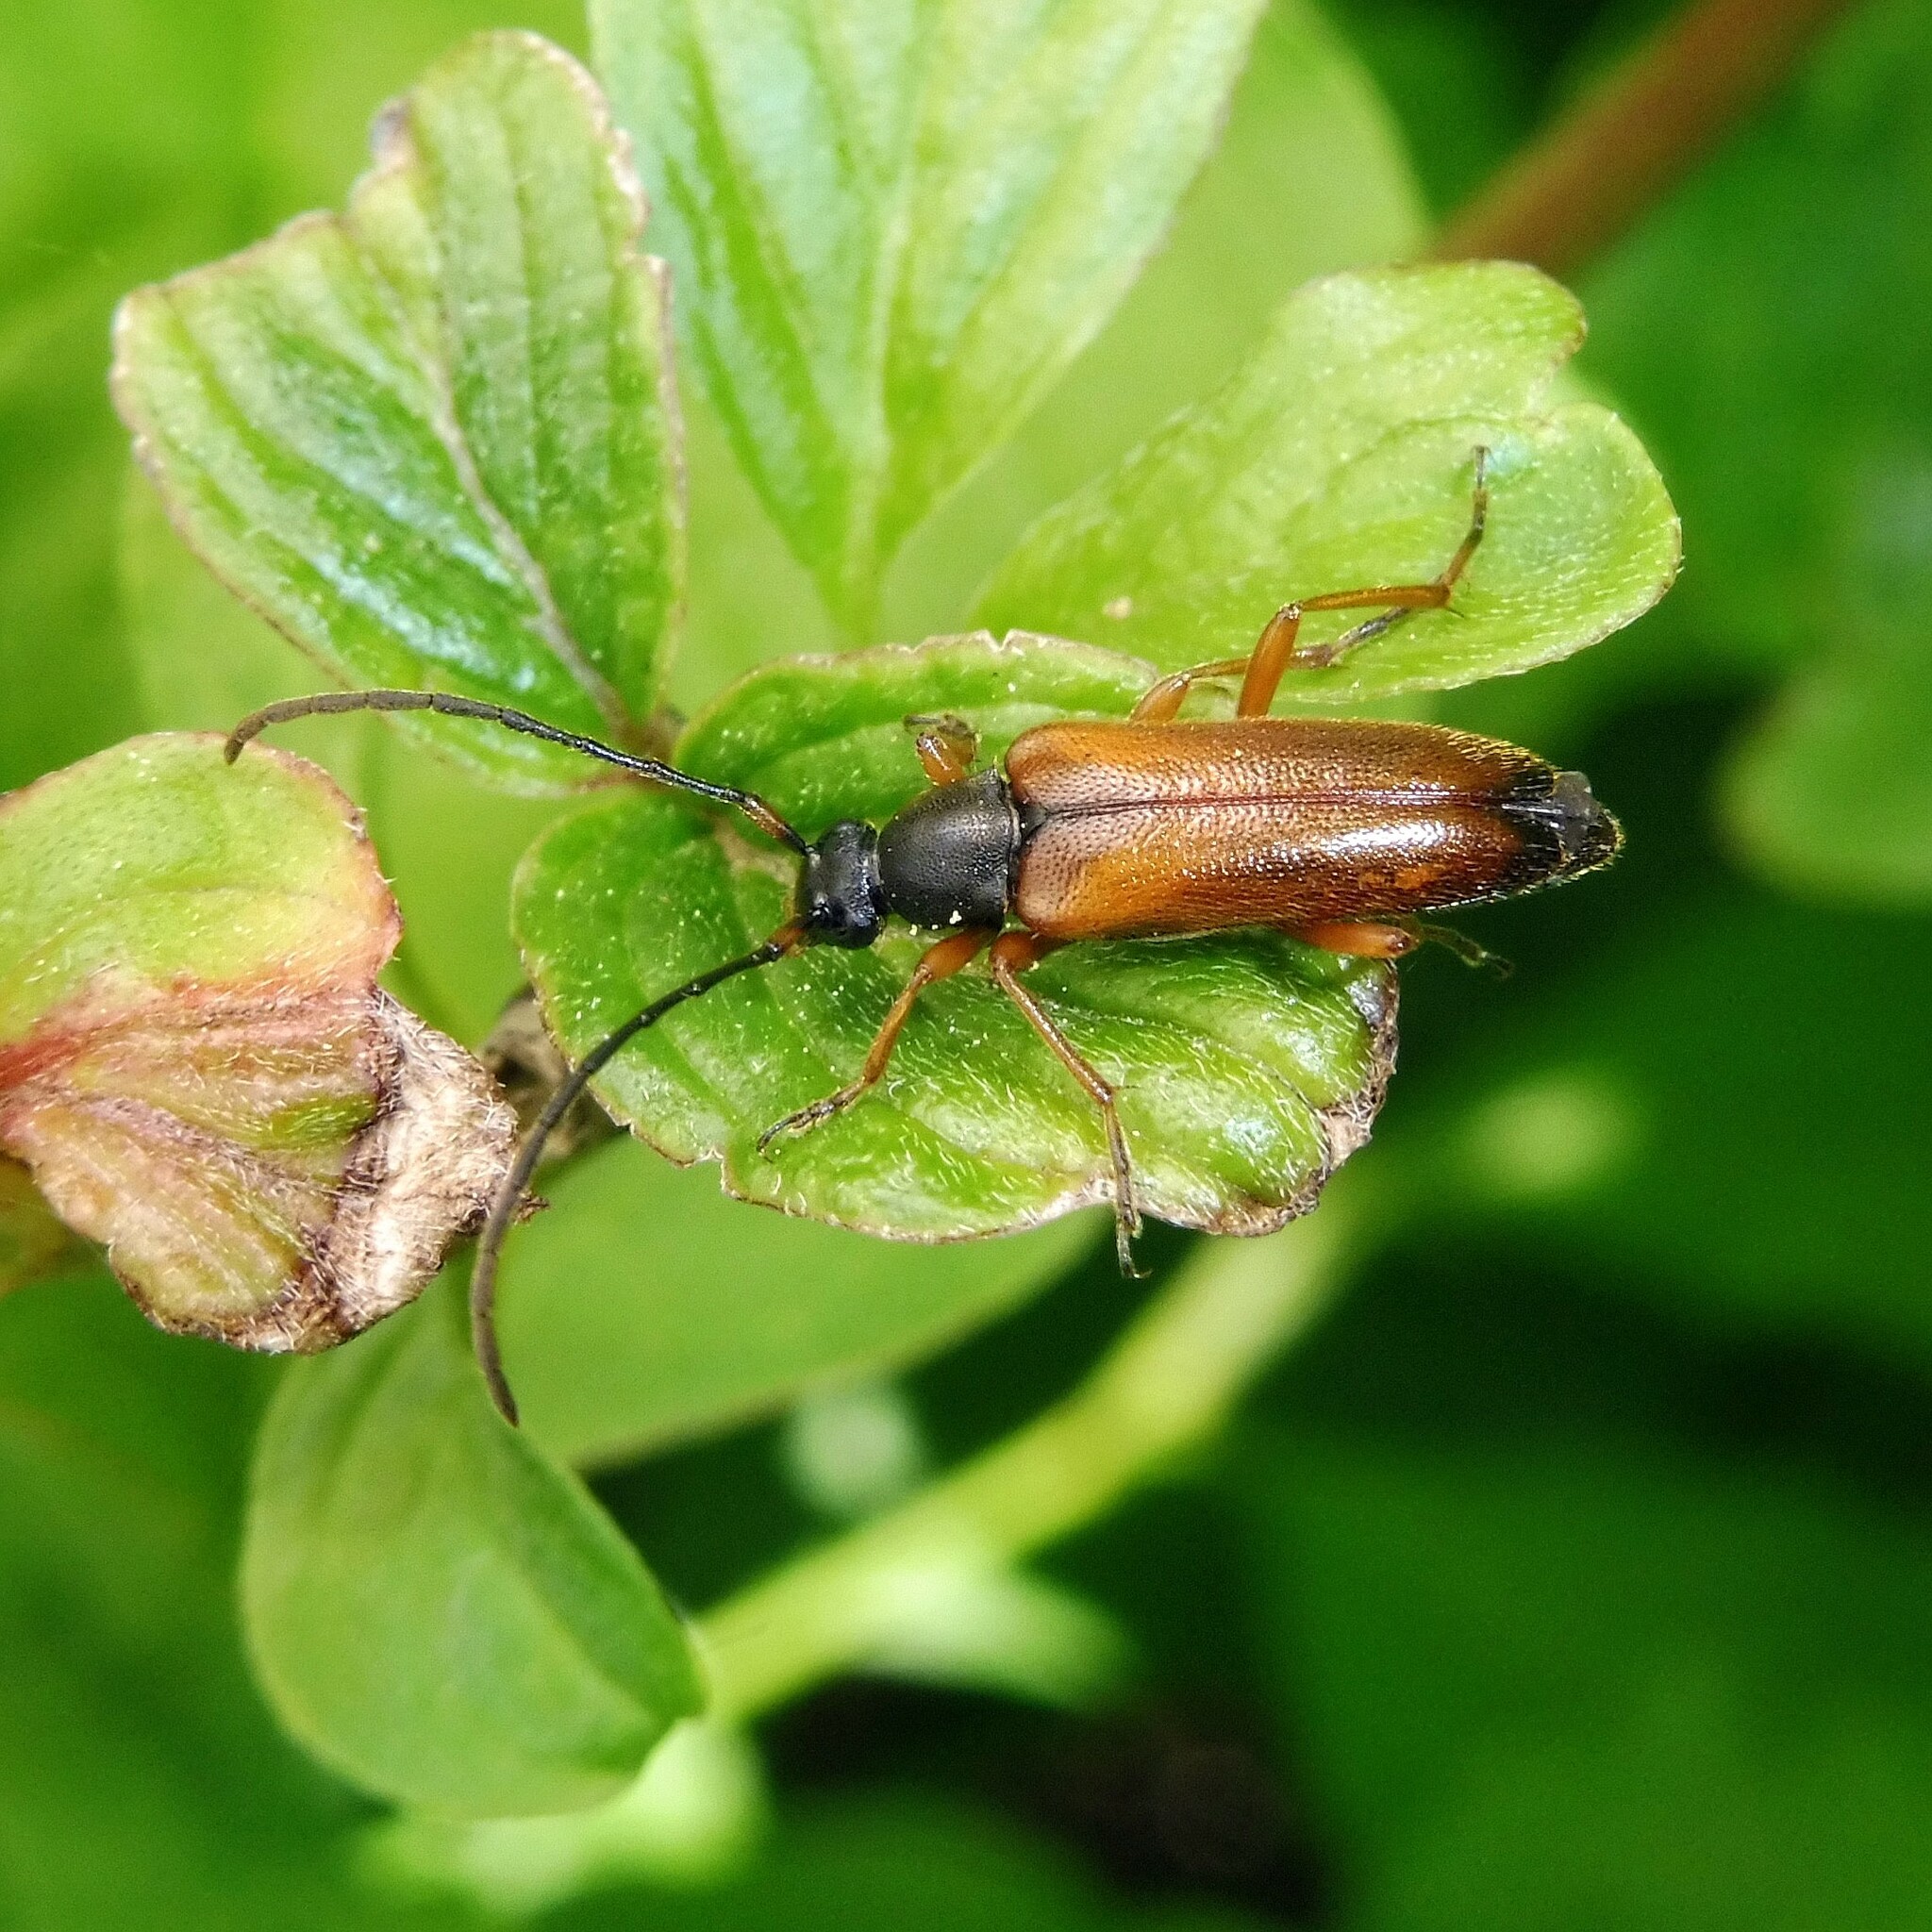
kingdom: Animalia
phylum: Arthropoda
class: Insecta
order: Coleoptera
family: Cerambycidae
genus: Alosterna
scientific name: Alosterna tabacicolor
